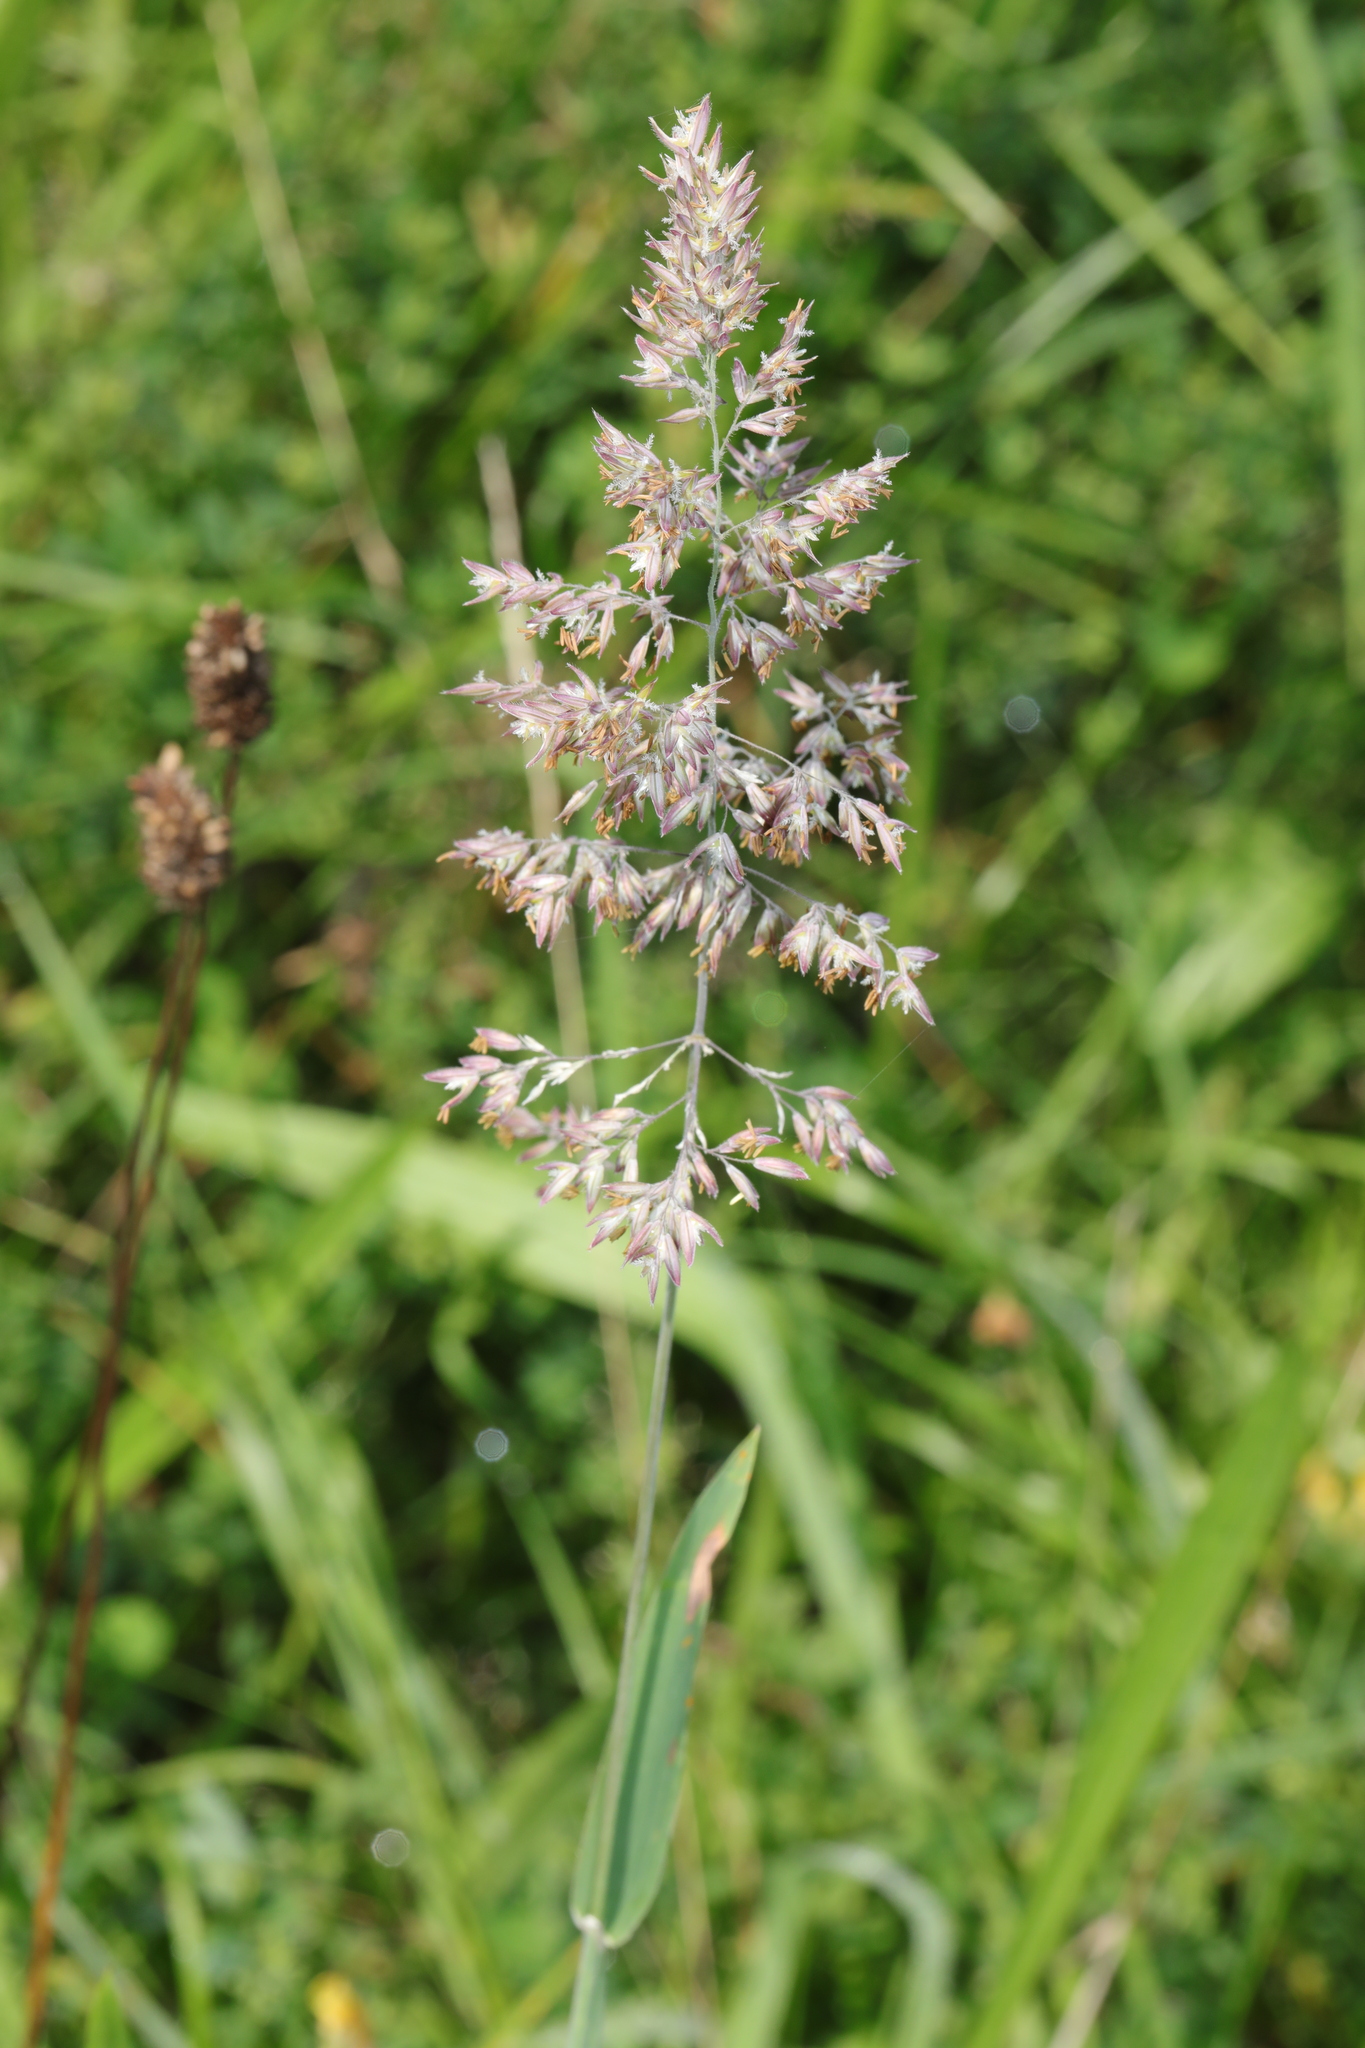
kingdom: Plantae
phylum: Tracheophyta
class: Liliopsida
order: Poales
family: Poaceae
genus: Holcus
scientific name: Holcus lanatus
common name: Yorkshire-fog
